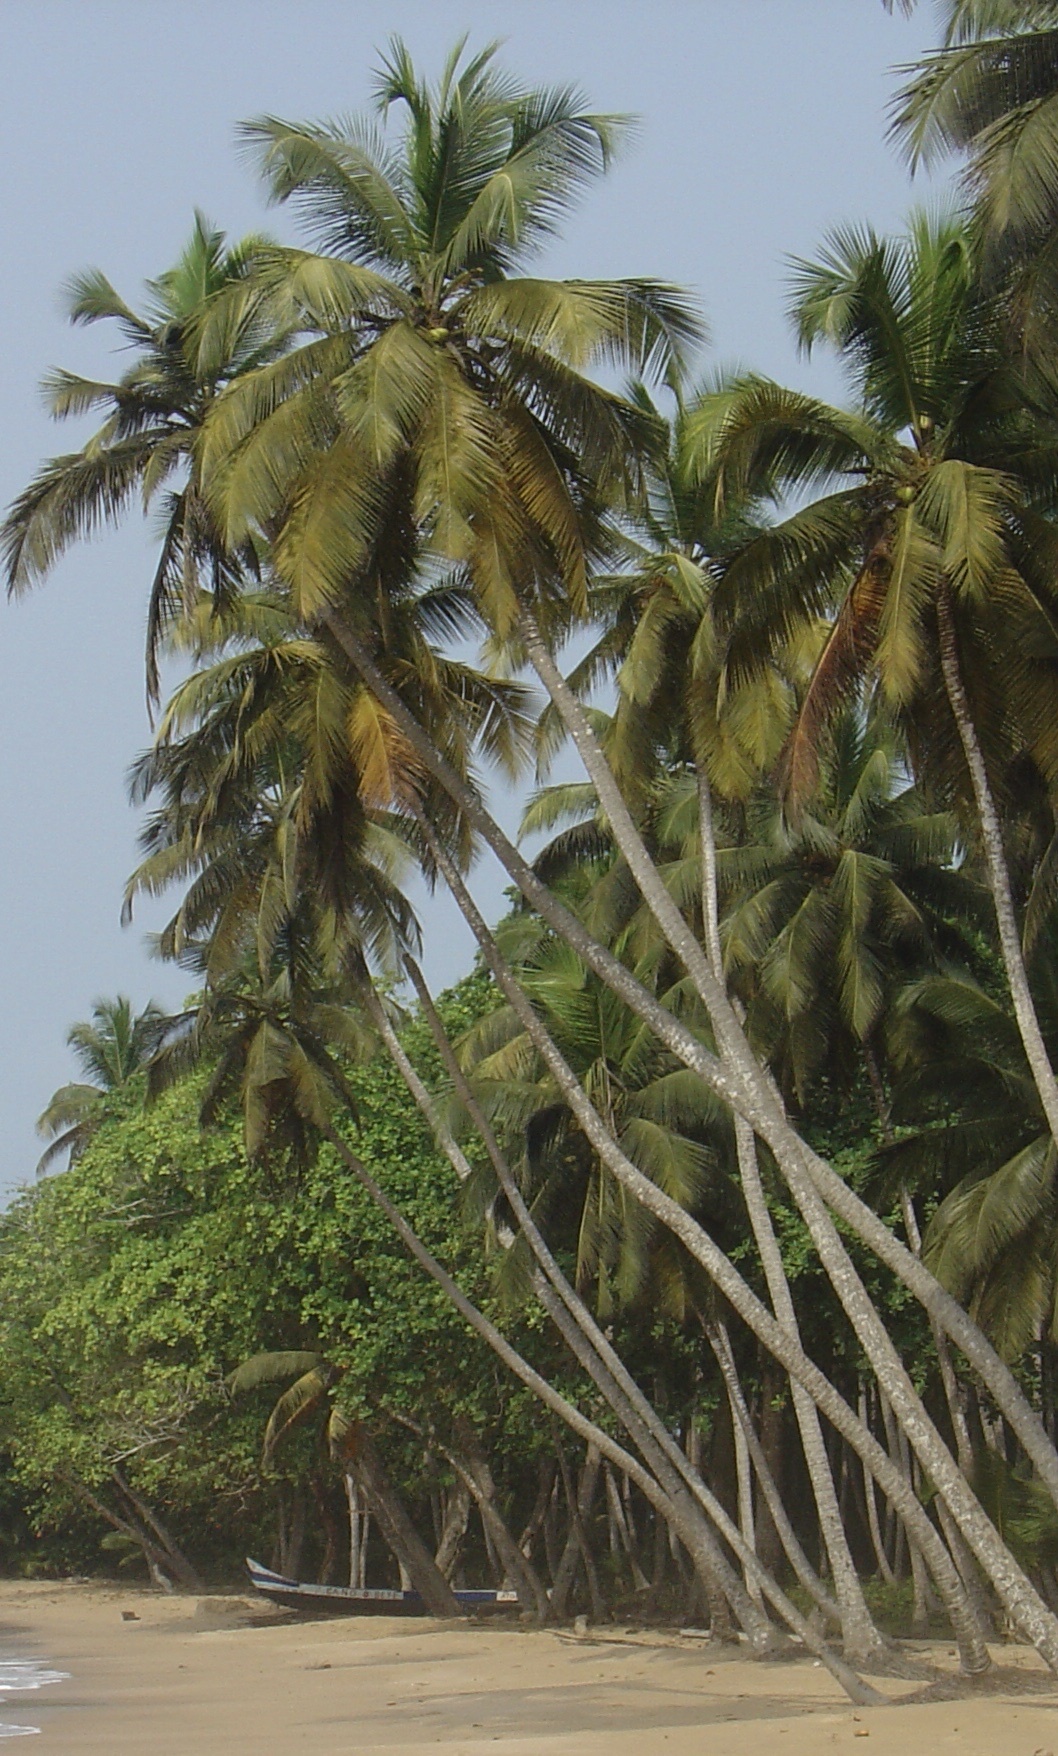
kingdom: Plantae
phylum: Tracheophyta
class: Liliopsida
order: Arecales
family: Arecaceae
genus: Cocos
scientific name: Cocos nucifera
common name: Coconut palm
